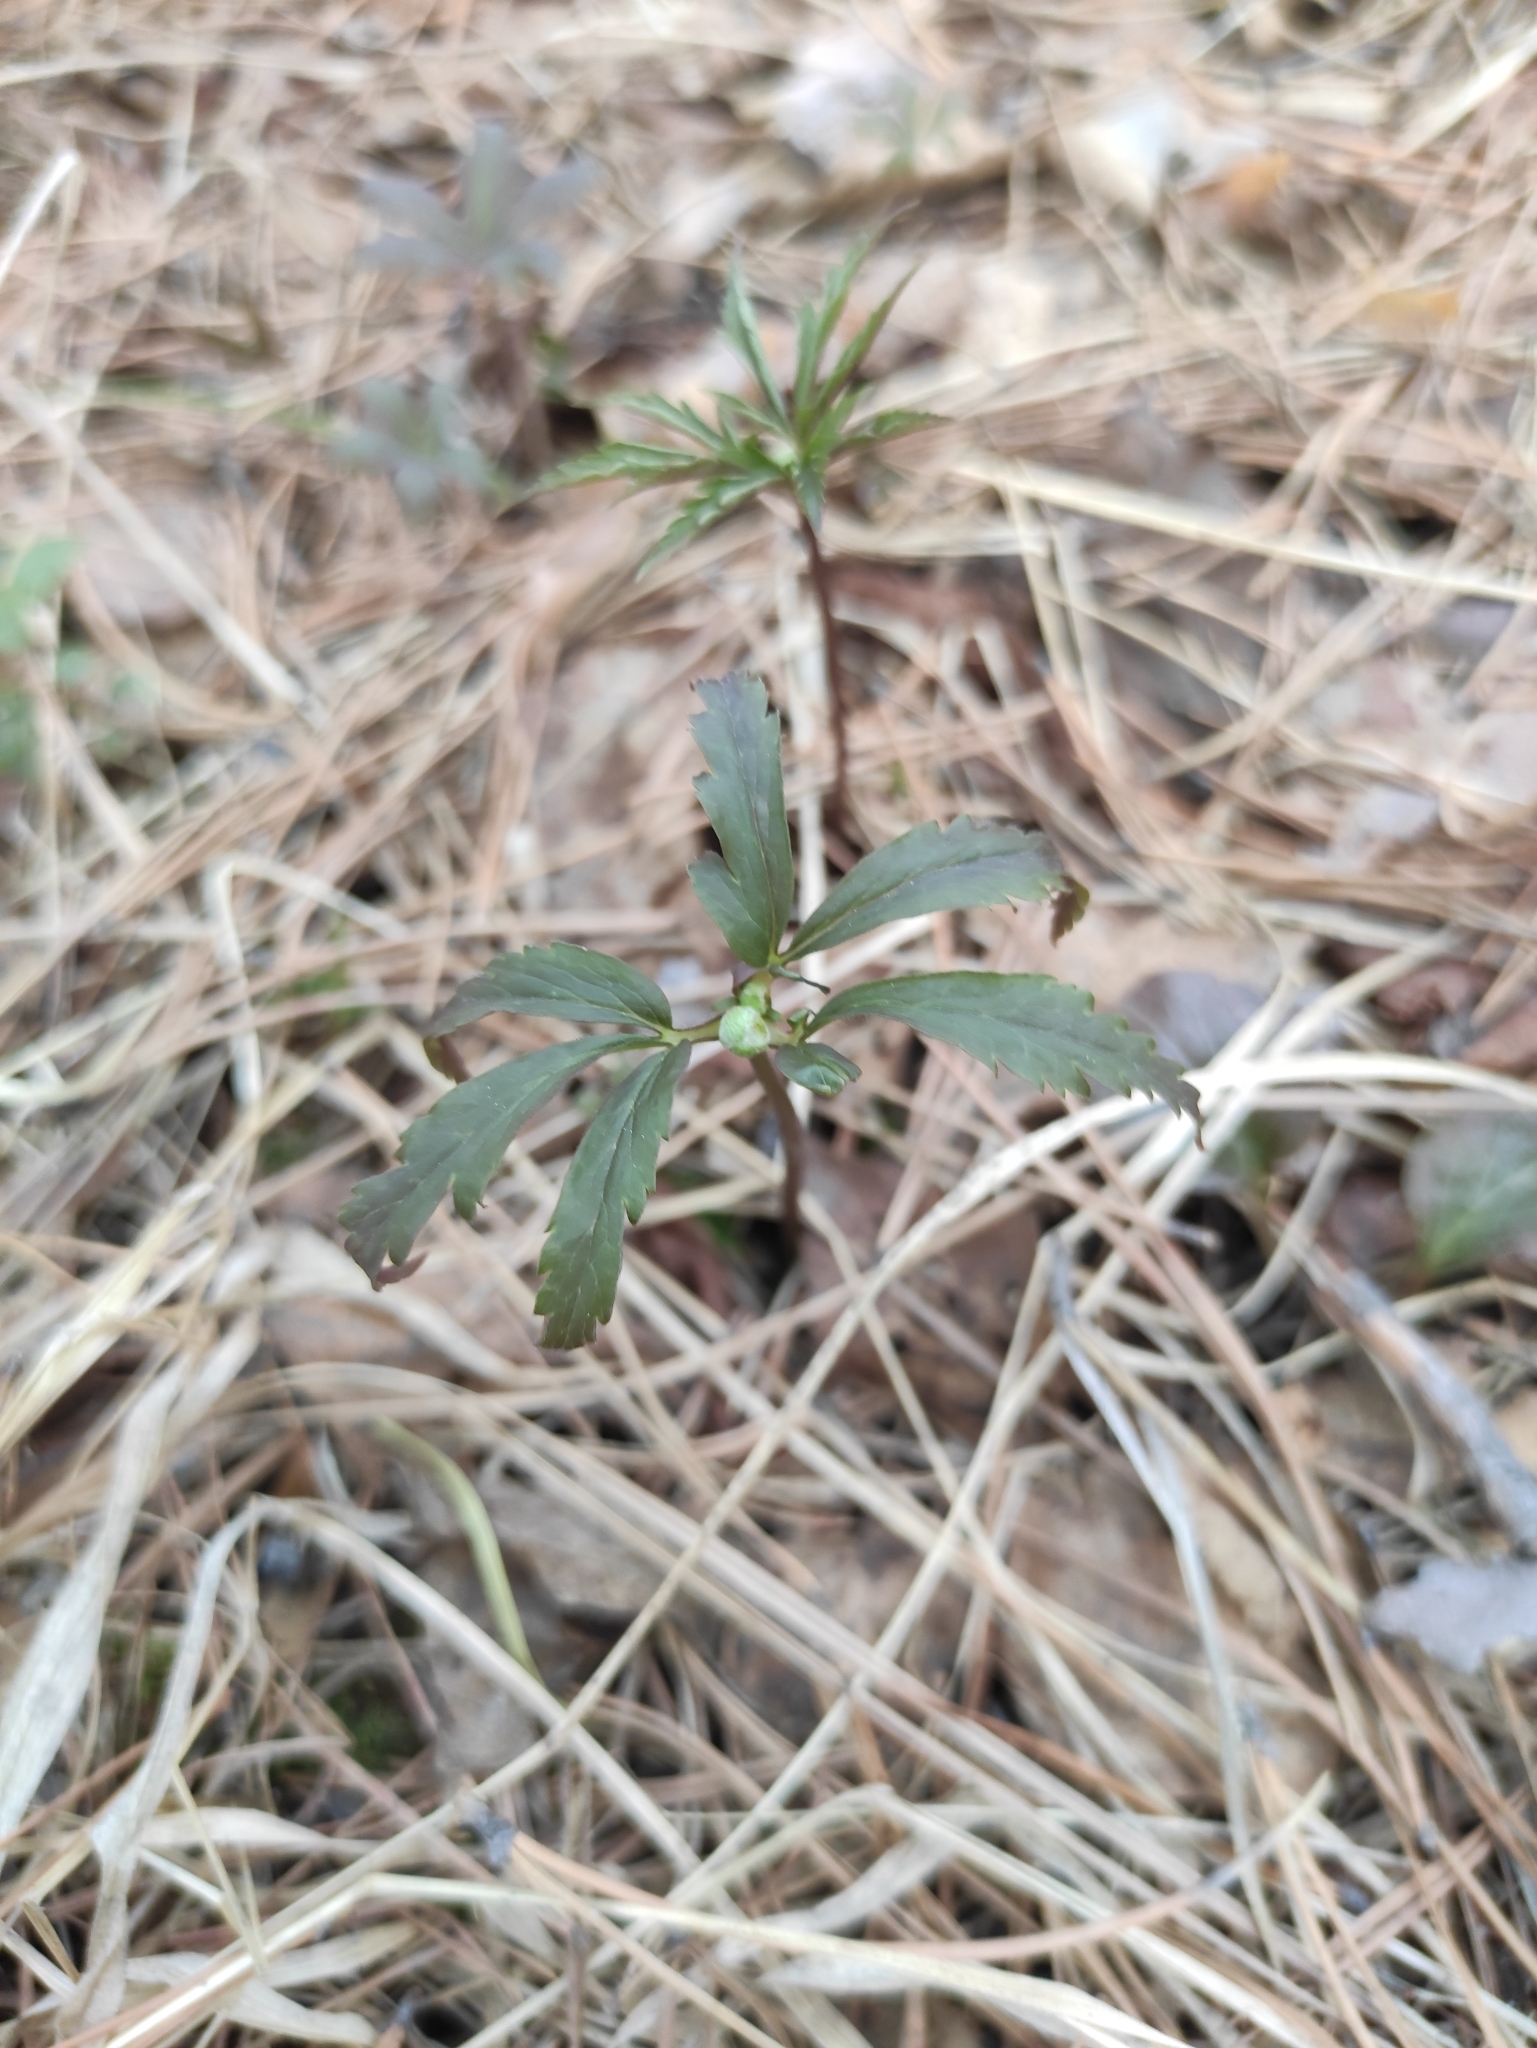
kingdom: Plantae
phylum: Tracheophyta
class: Magnoliopsida
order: Ranunculales
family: Ranunculaceae
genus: Anemone
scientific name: Anemone reflexa
